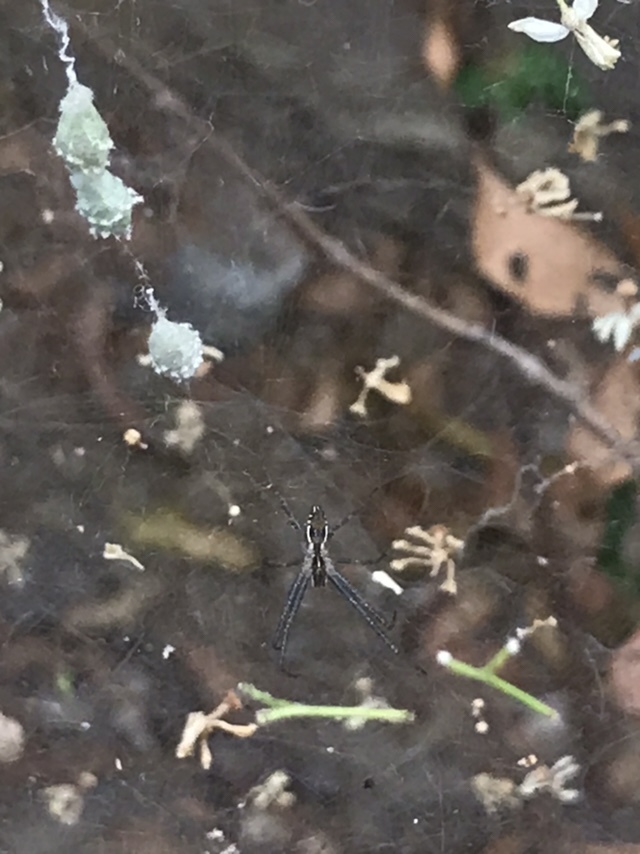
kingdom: Animalia
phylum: Arthropoda
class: Arachnida
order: Araneae
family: Araneidae
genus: Cyrtophora
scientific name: Cyrtophora cicatrosa
